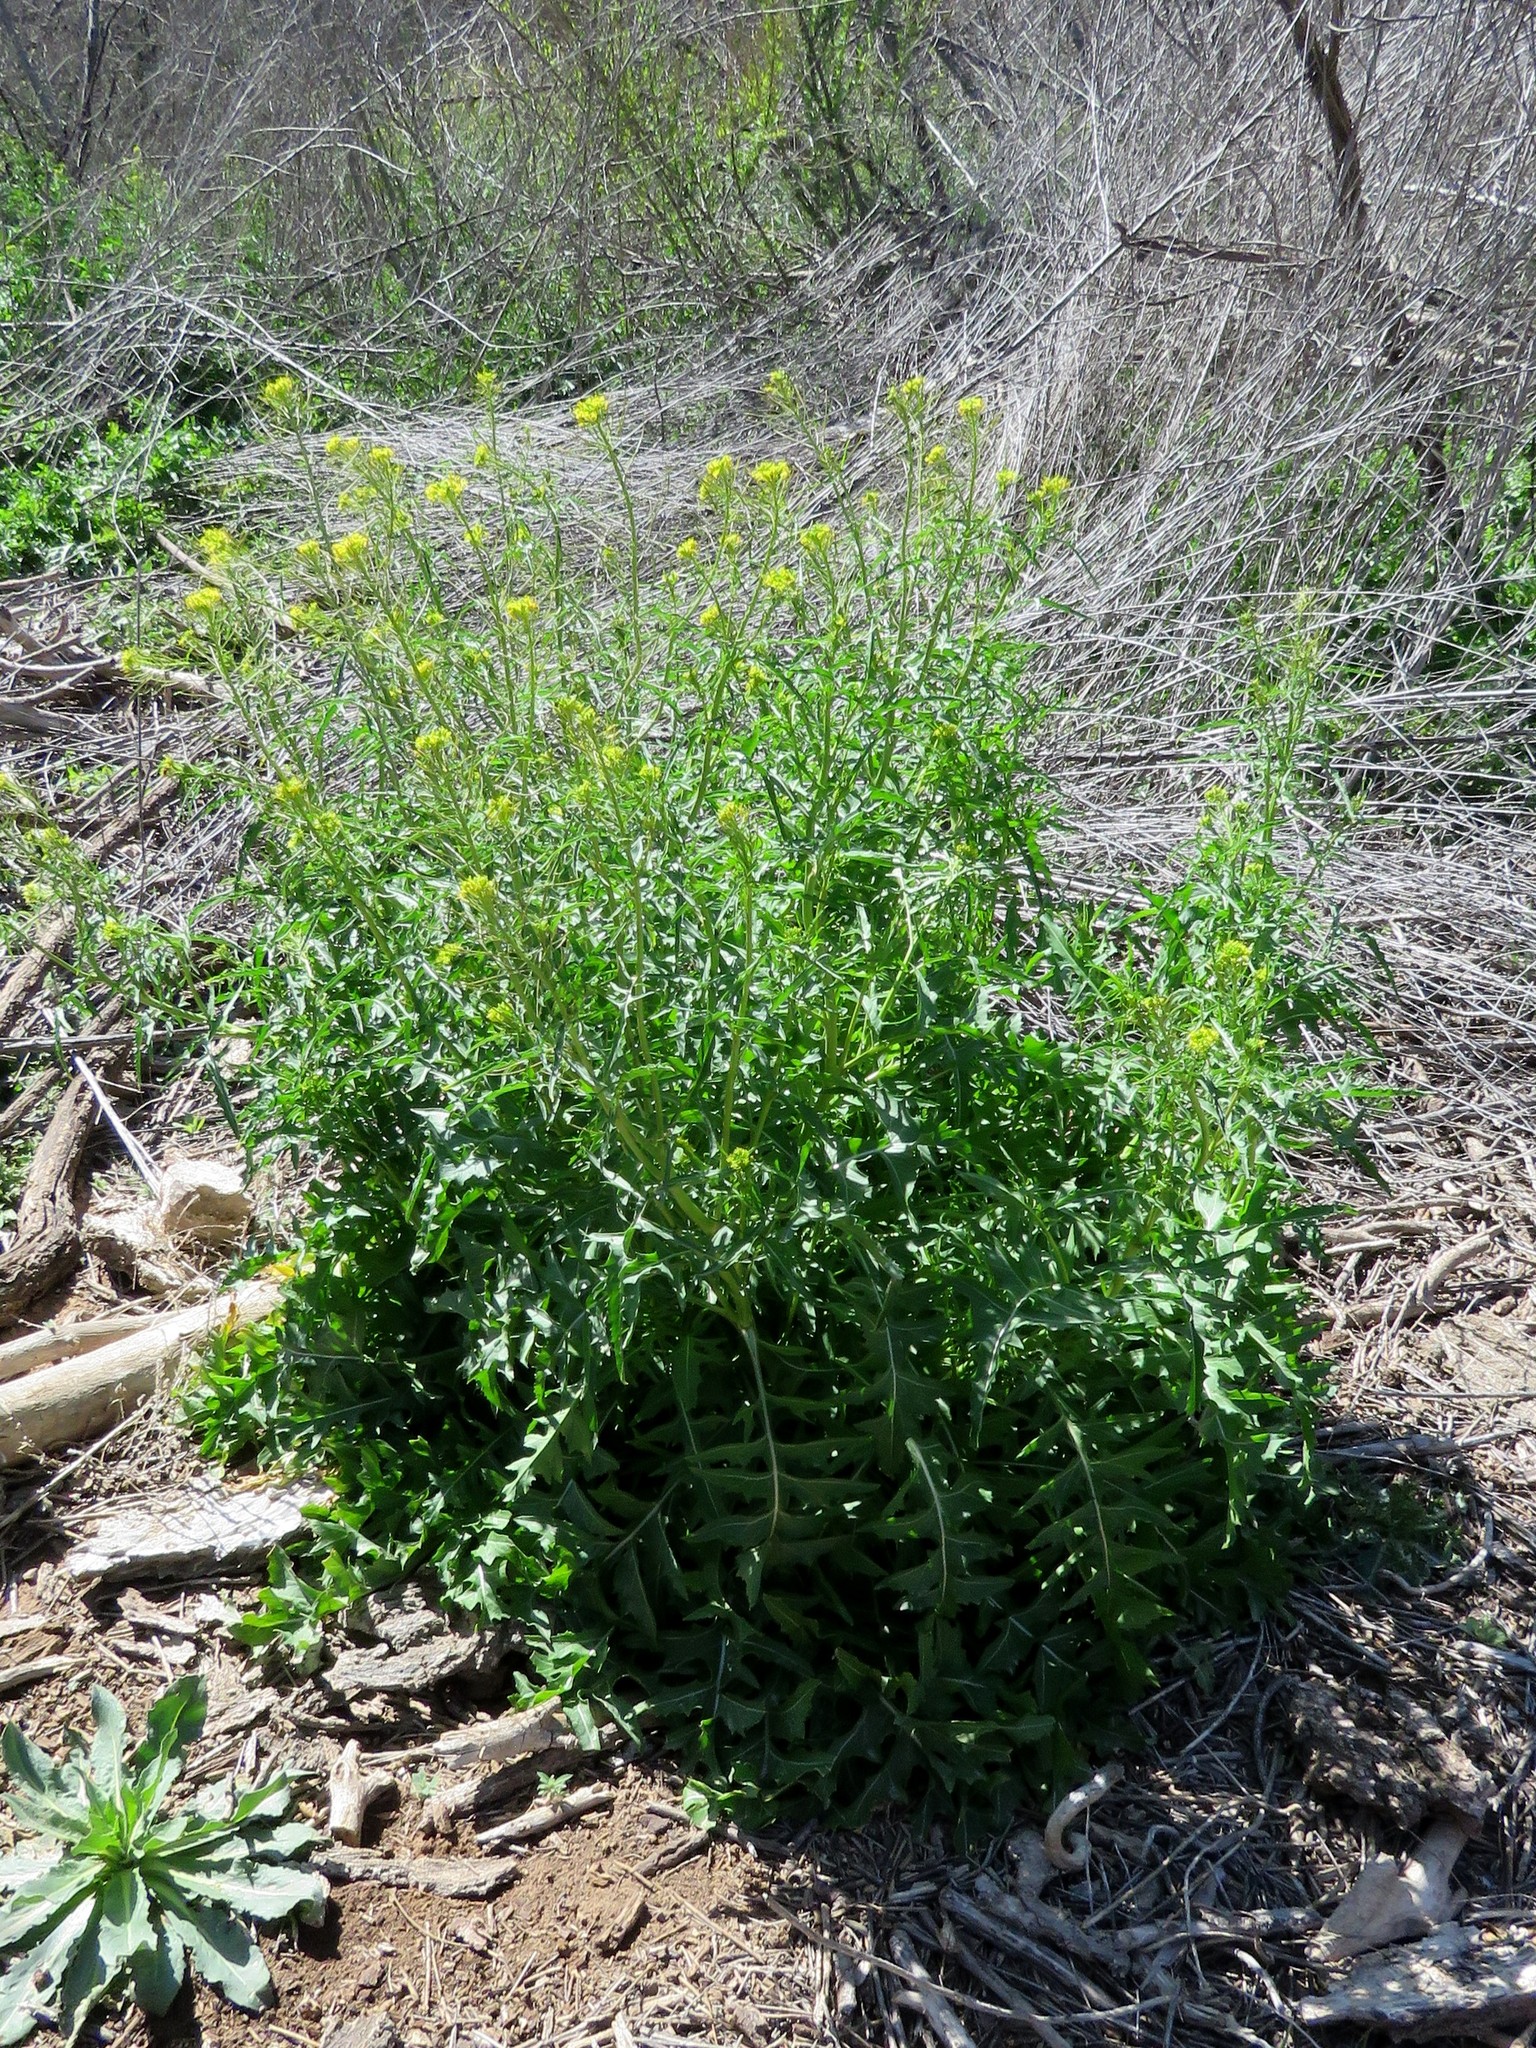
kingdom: Plantae
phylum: Tracheophyta
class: Magnoliopsida
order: Brassicales
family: Brassicaceae
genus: Sisymbrium
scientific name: Sisymbrium irio
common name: London rocket
